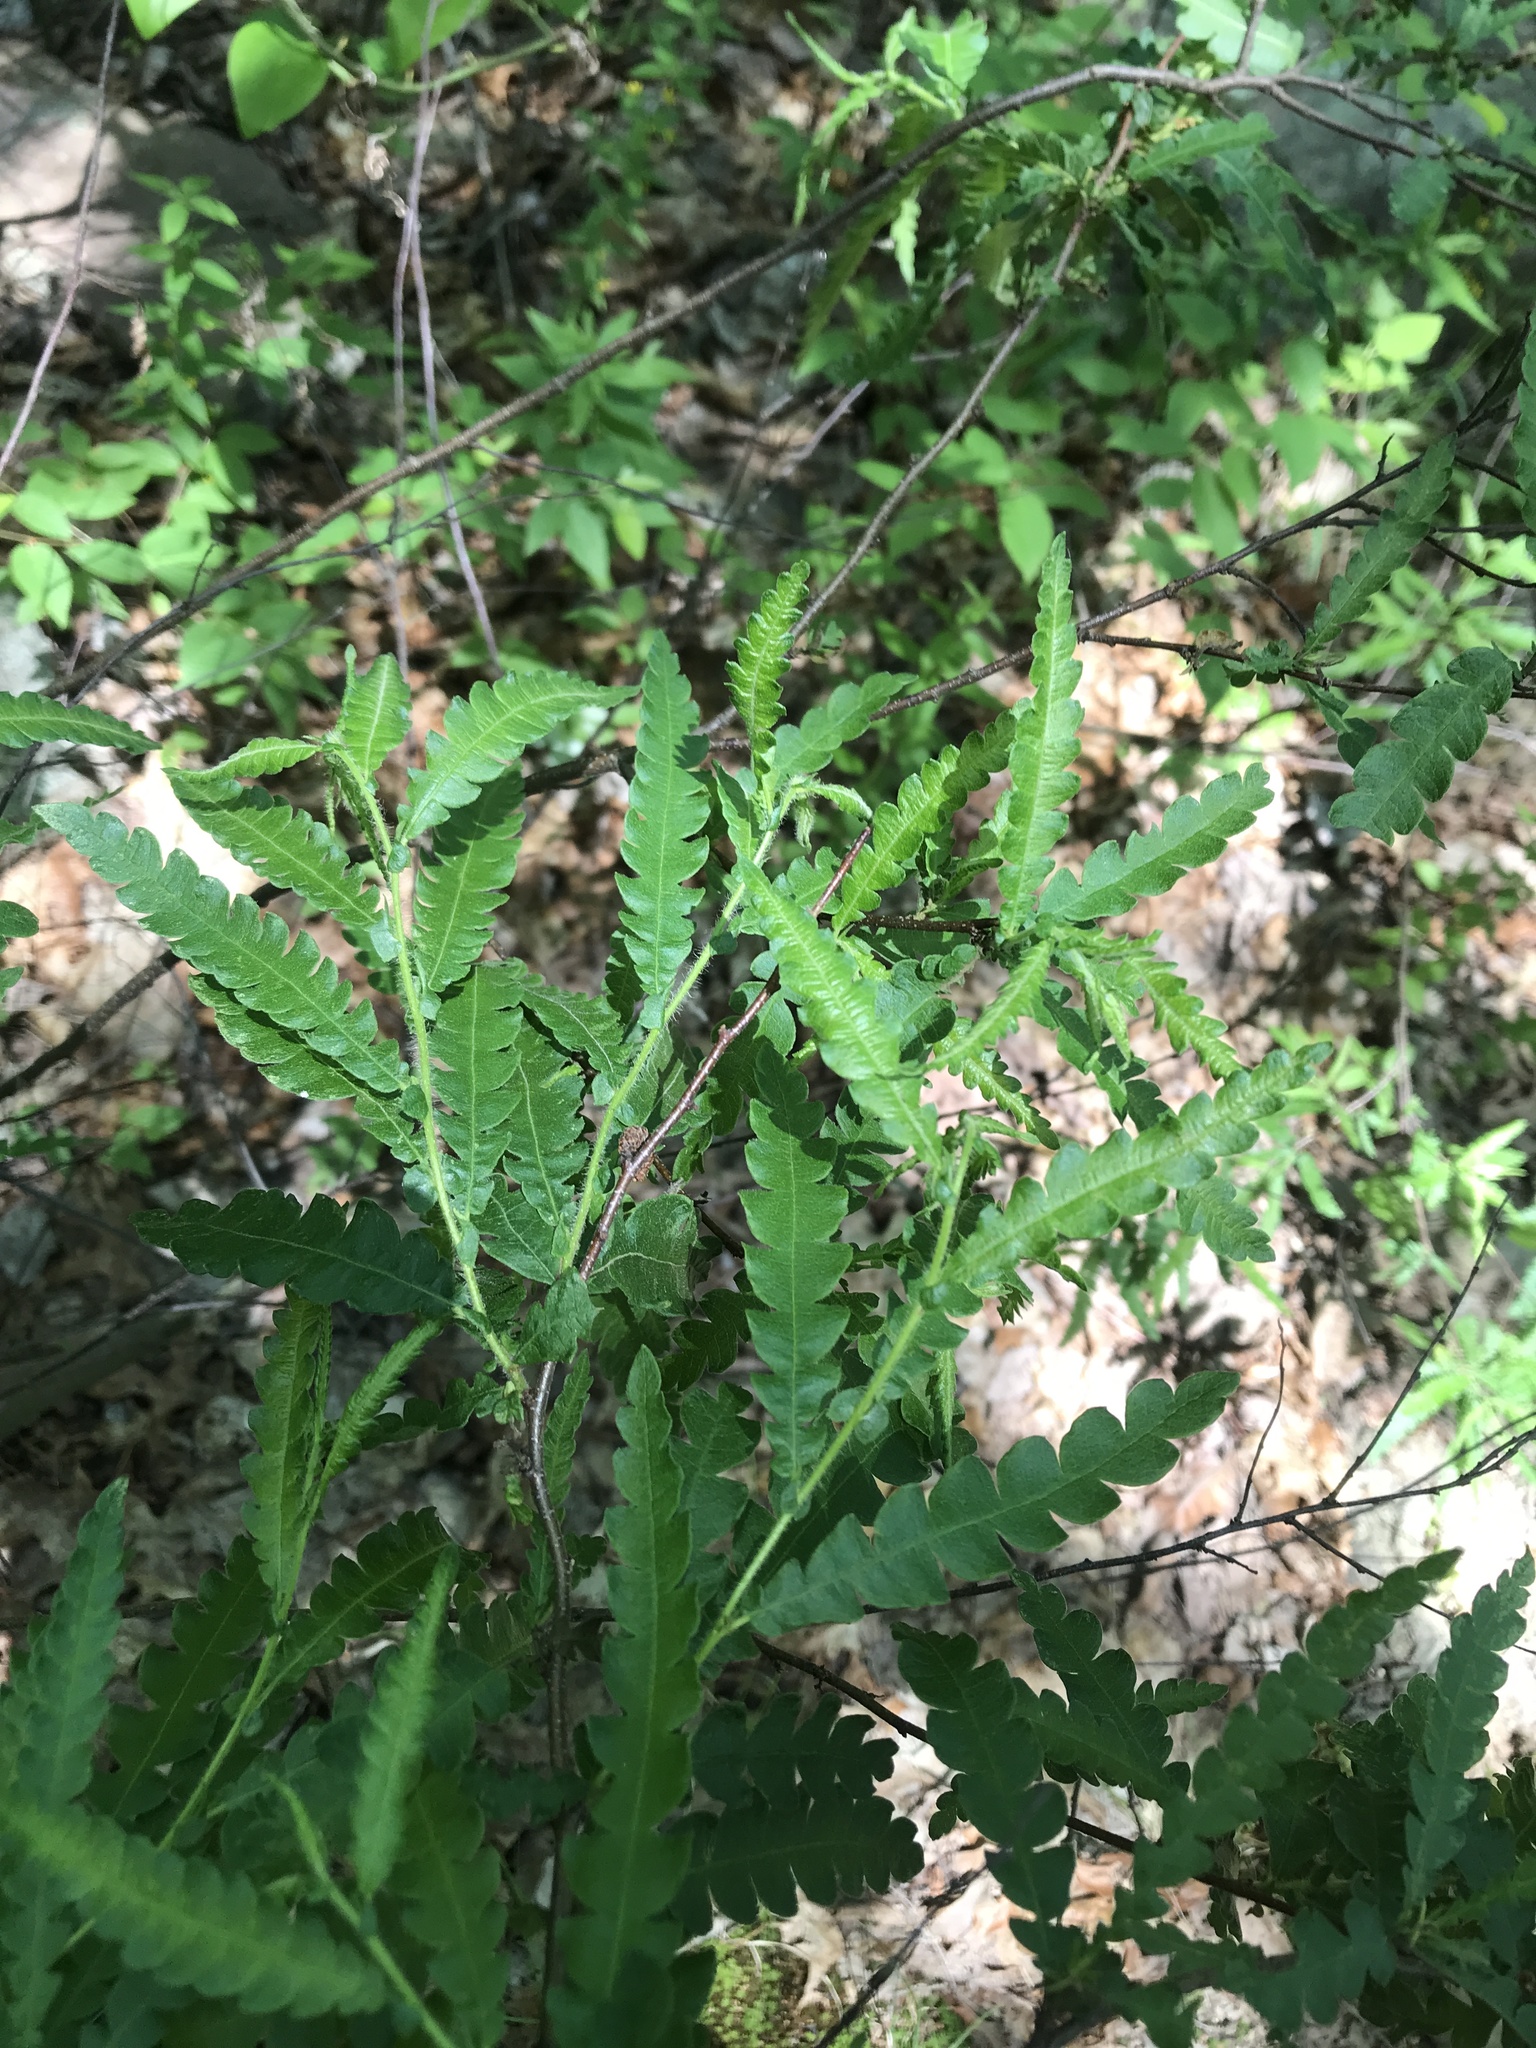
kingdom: Plantae
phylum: Tracheophyta
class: Magnoliopsida
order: Fagales
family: Myricaceae
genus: Comptonia
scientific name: Comptonia peregrina
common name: Sweet-fern
